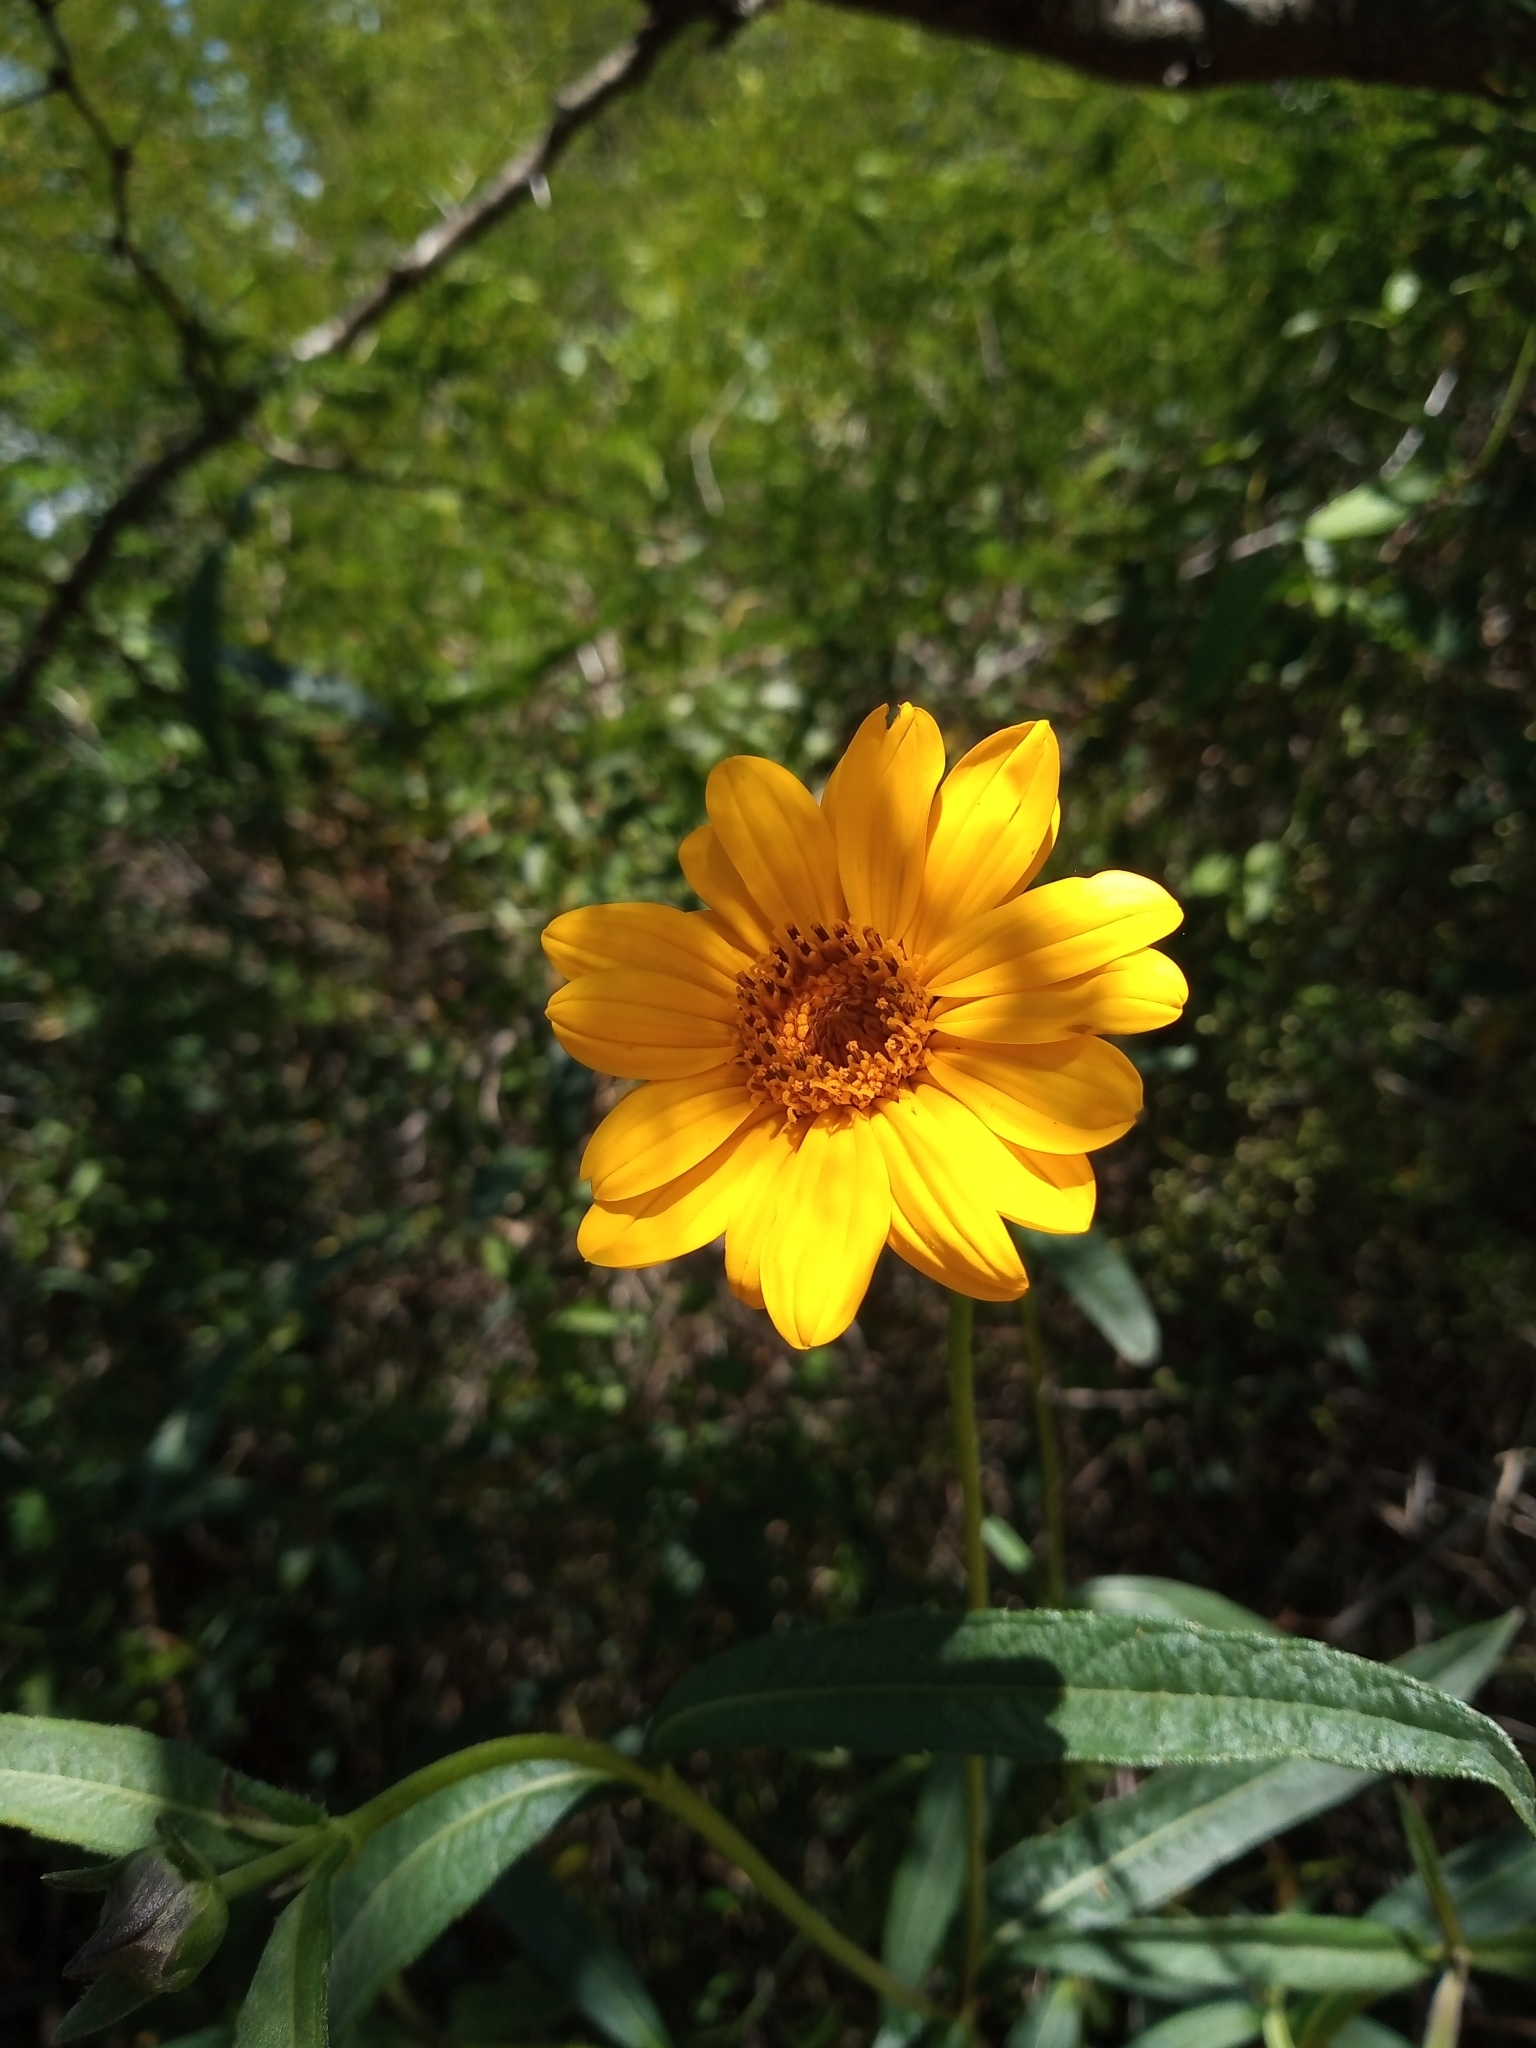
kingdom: Plantae
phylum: Tracheophyta
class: Magnoliopsida
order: Asterales
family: Asteraceae
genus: Bidens
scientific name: Bidens laevis
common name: Larger bur-marigold
